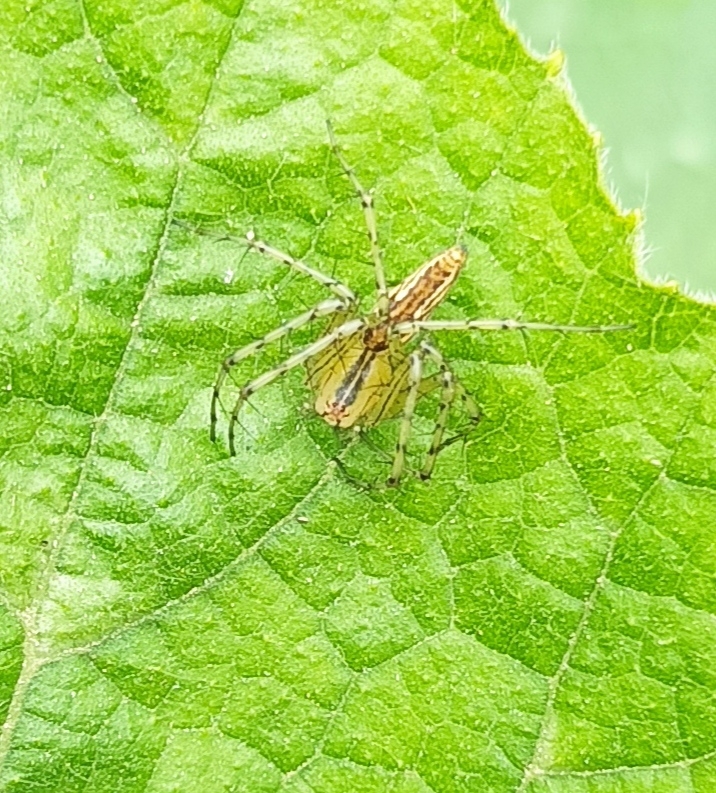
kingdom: Animalia
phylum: Arthropoda
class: Arachnida
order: Araneae
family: Oxyopidae
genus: Peucetia
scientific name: Peucetia rubrolineata
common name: Lynx spiders
